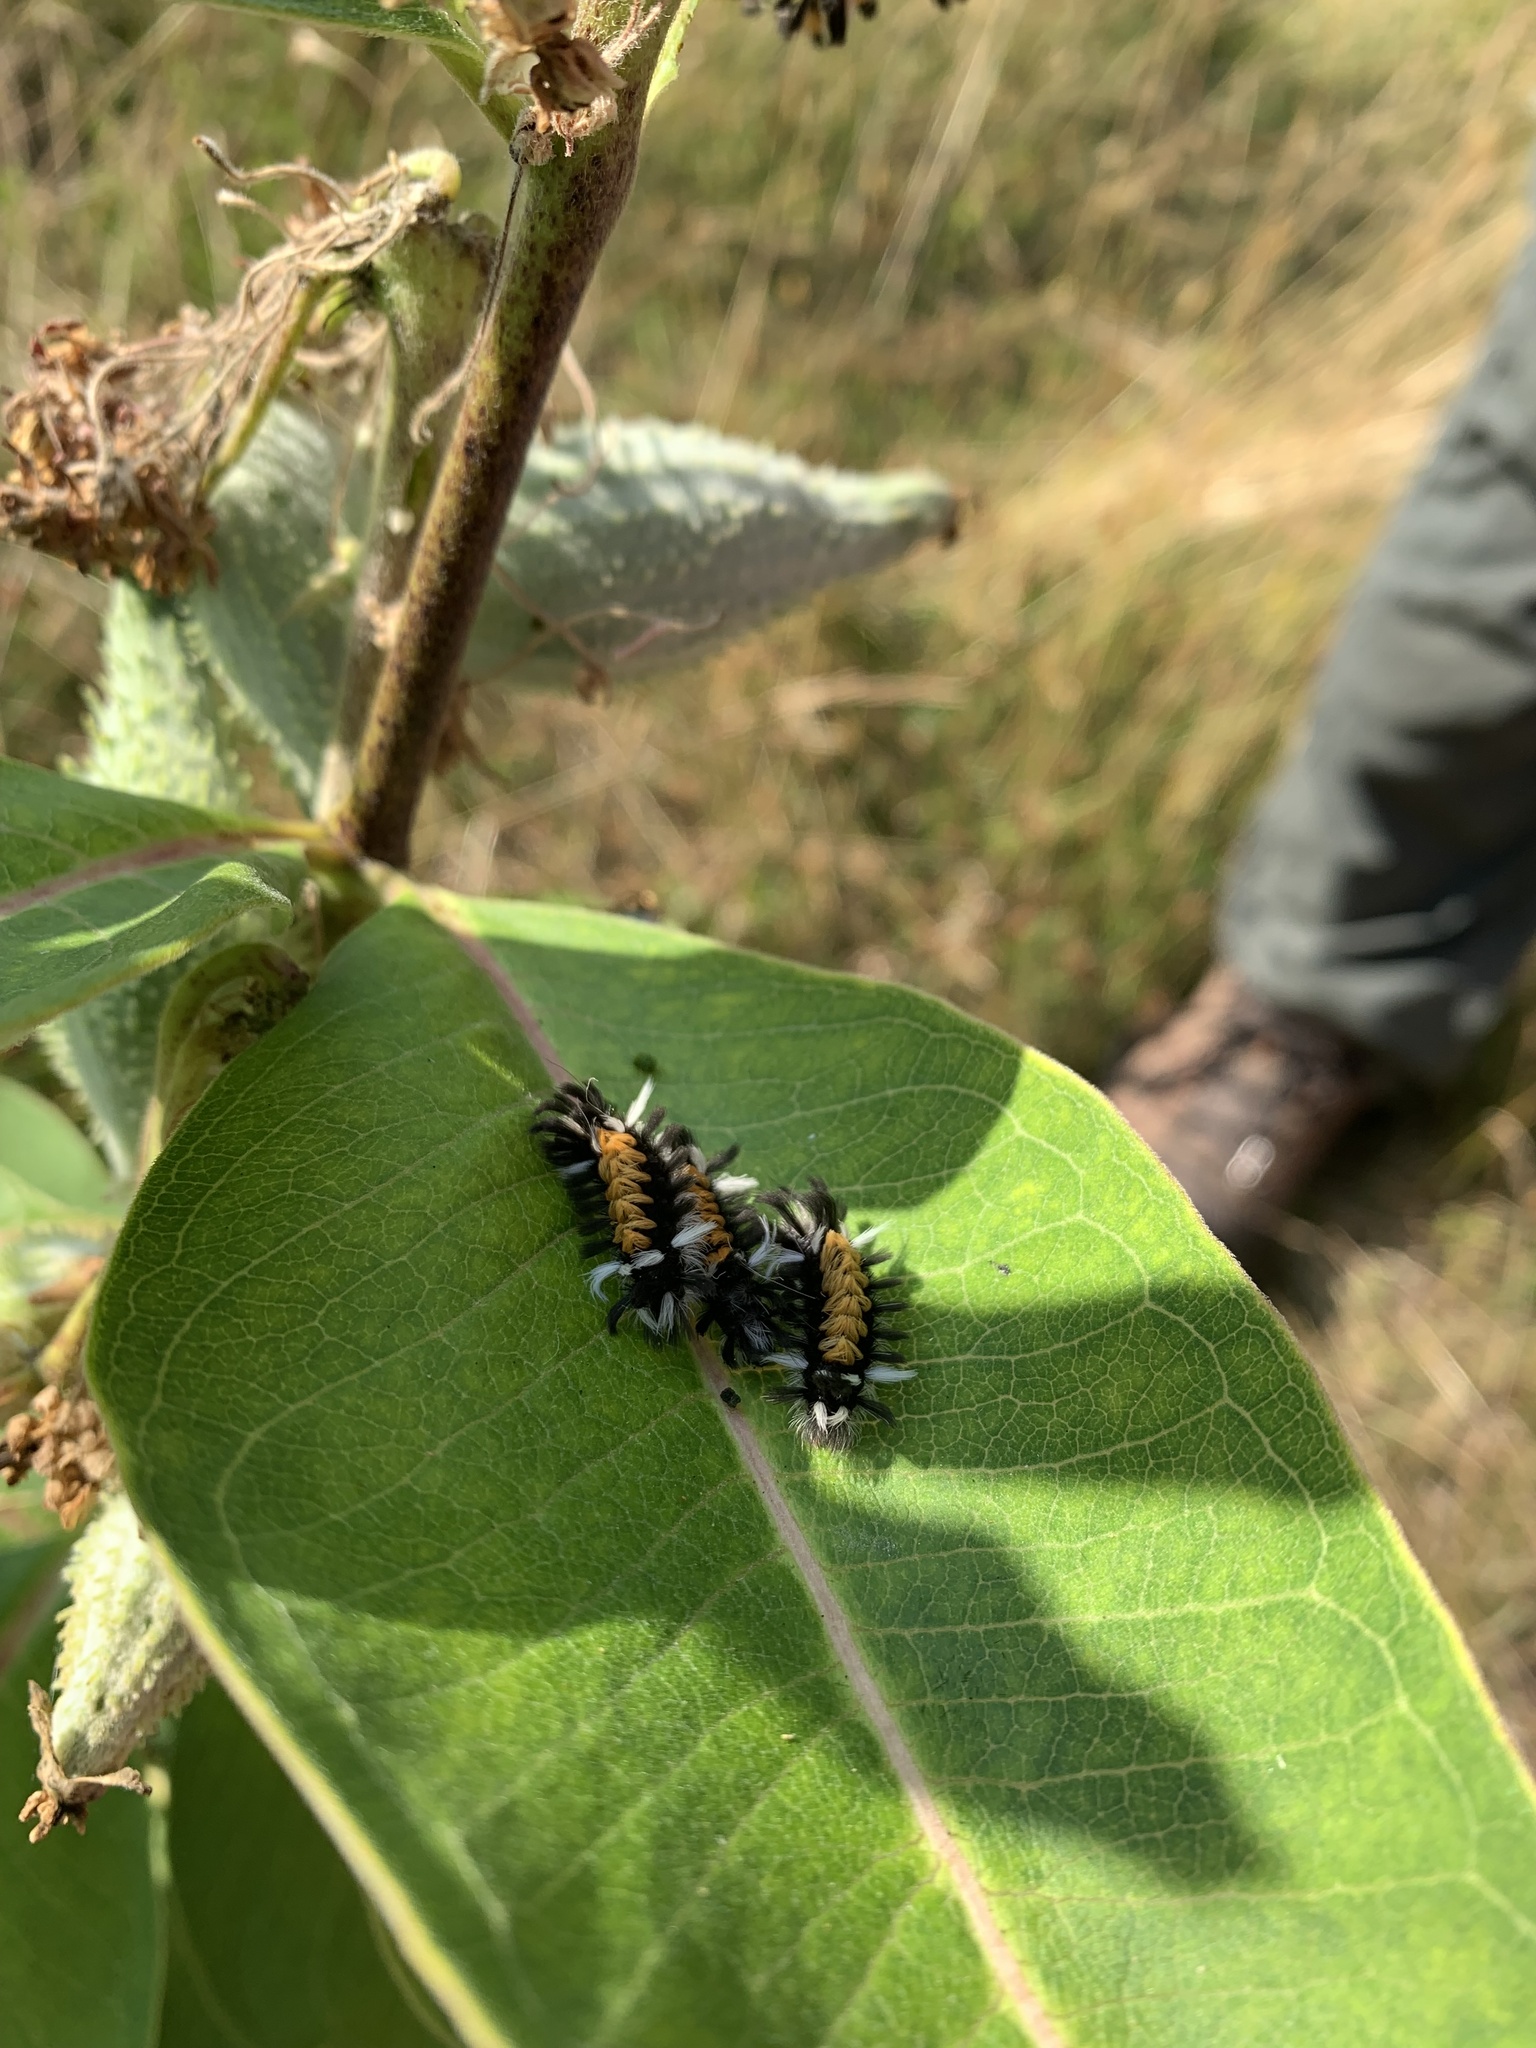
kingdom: Animalia
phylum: Arthropoda
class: Insecta
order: Lepidoptera
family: Erebidae
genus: Euchaetes
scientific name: Euchaetes egle
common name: Milkweed tussock moth
